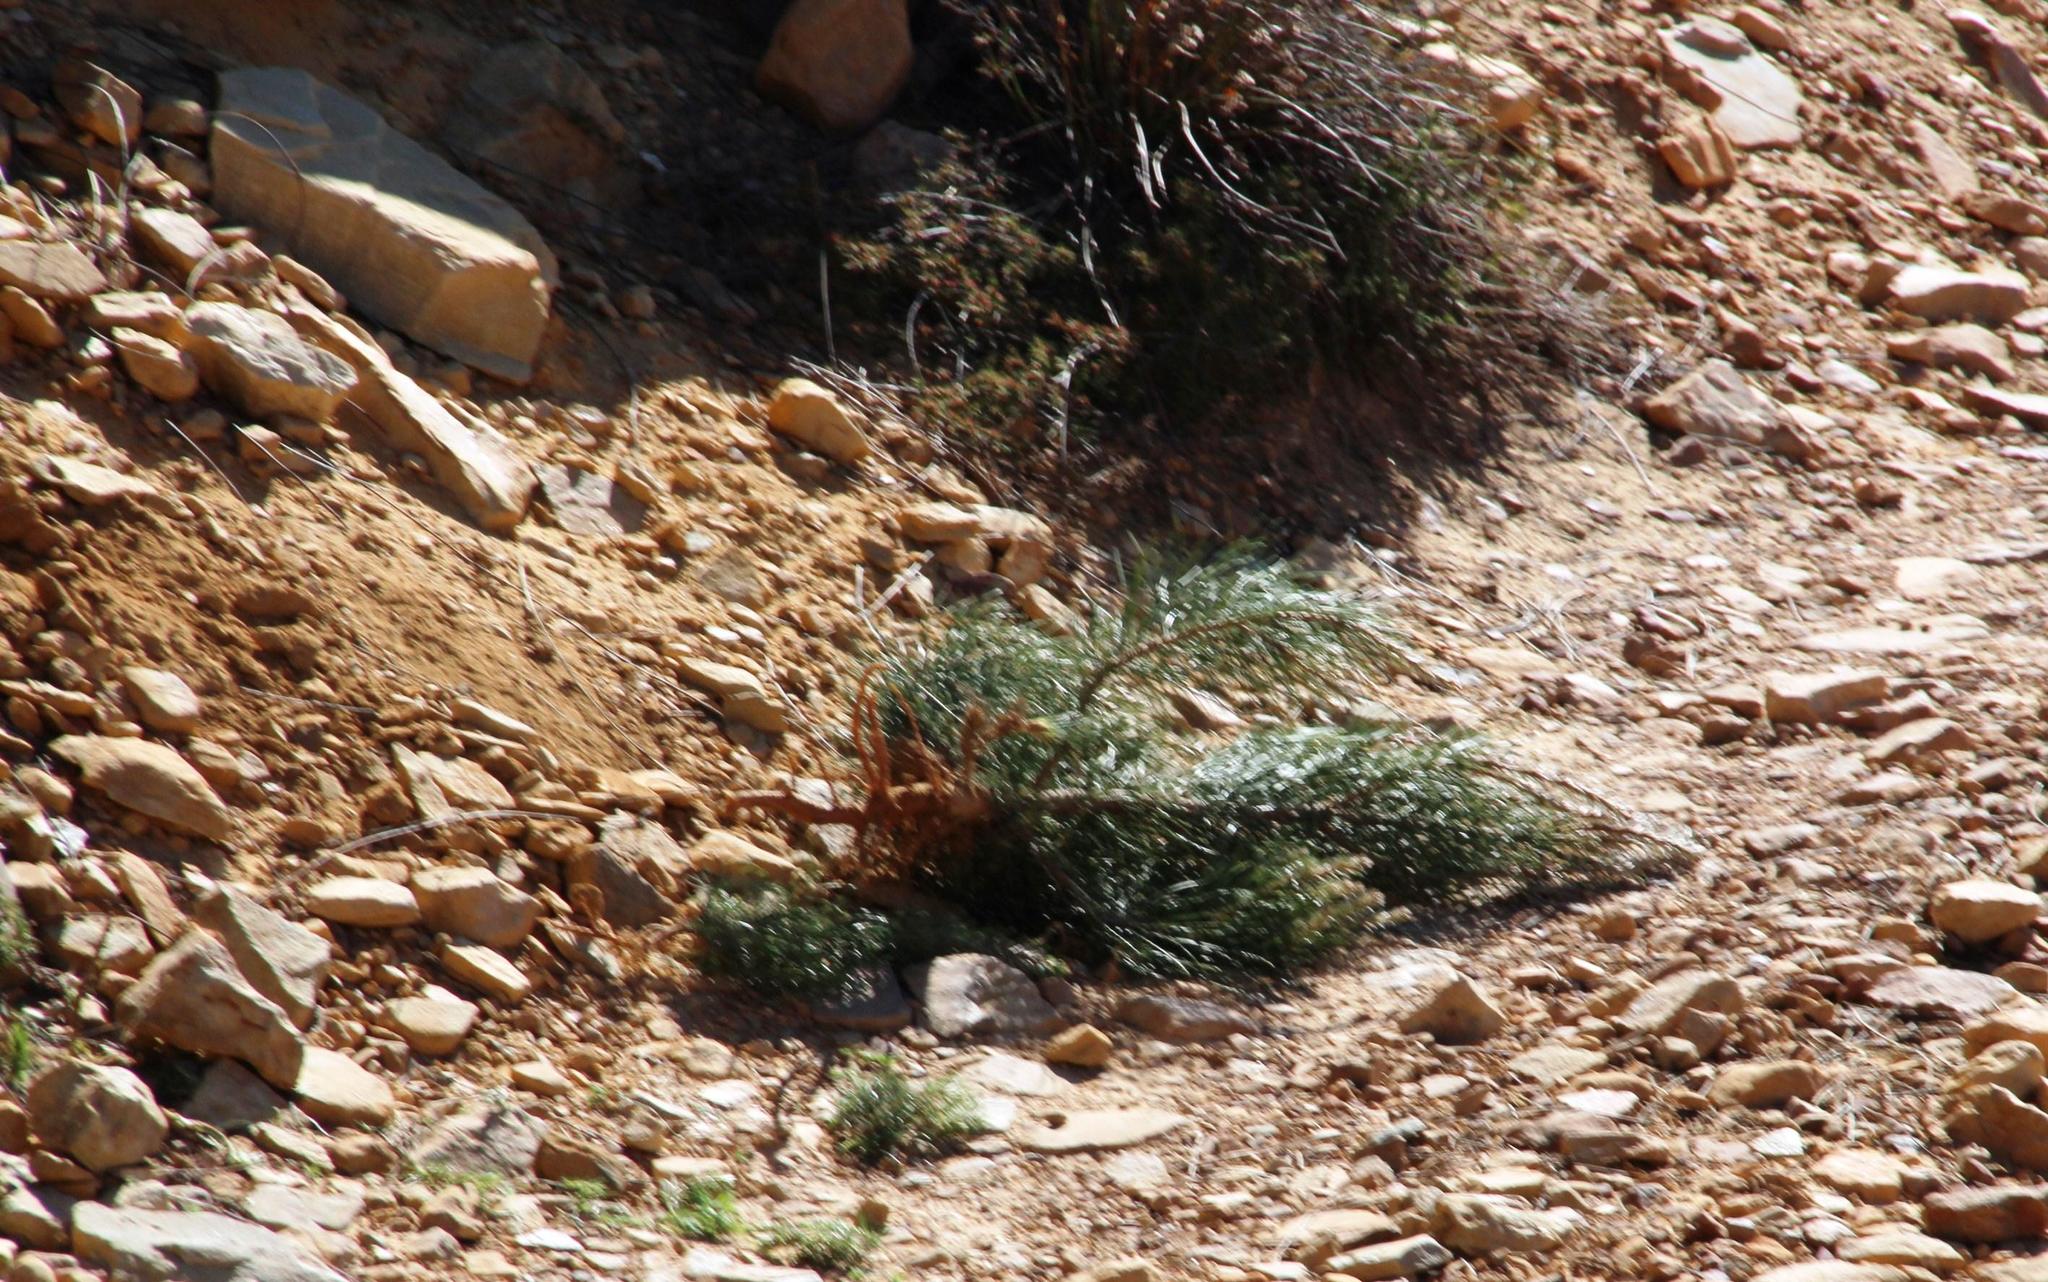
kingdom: Plantae
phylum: Tracheophyta
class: Pinopsida
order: Pinales
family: Pinaceae
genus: Pinus
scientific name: Pinus pinaster
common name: Maritime pine
